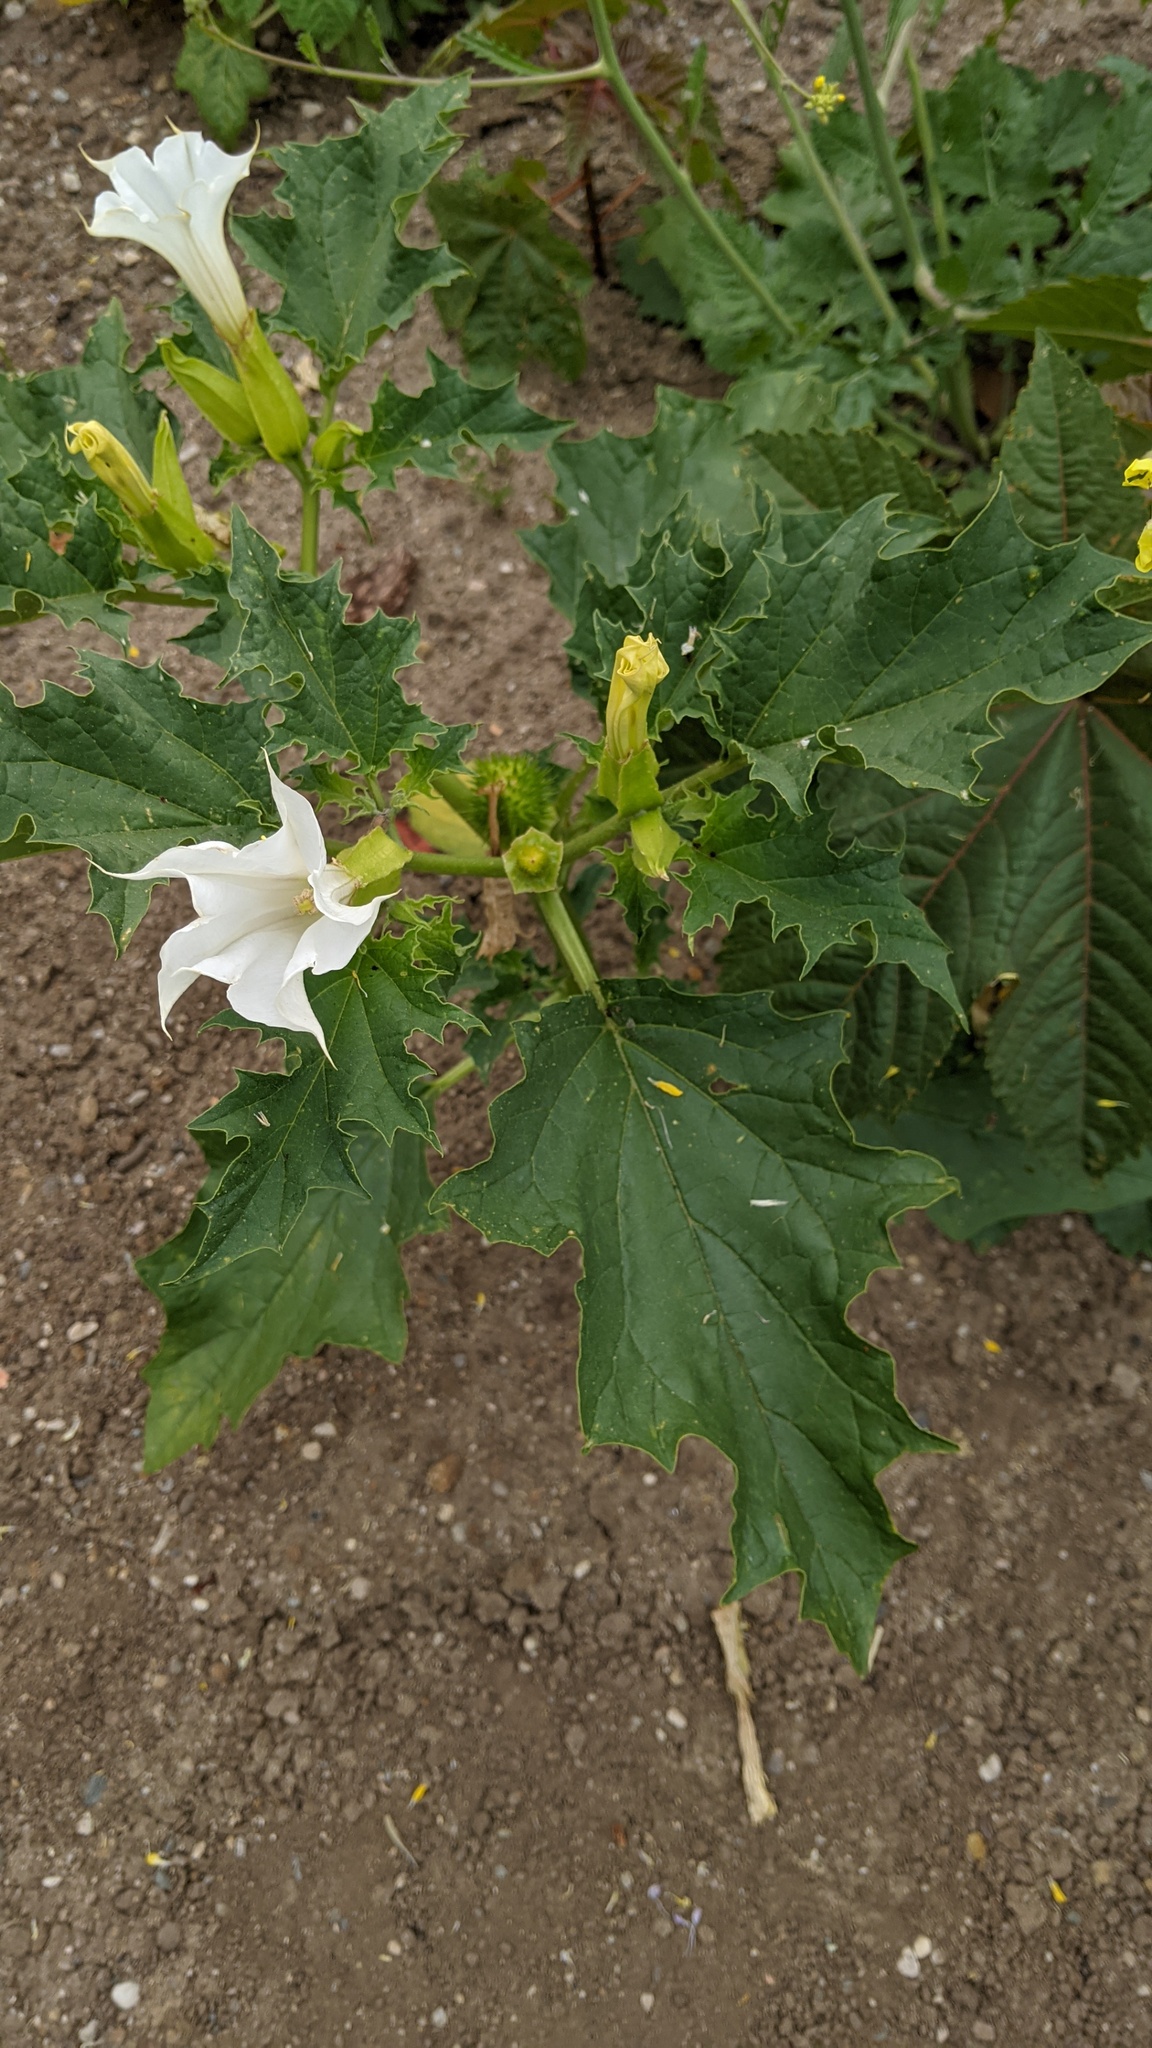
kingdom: Plantae
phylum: Tracheophyta
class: Magnoliopsida
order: Solanales
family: Solanaceae
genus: Datura
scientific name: Datura stramonium
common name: Thorn-apple
